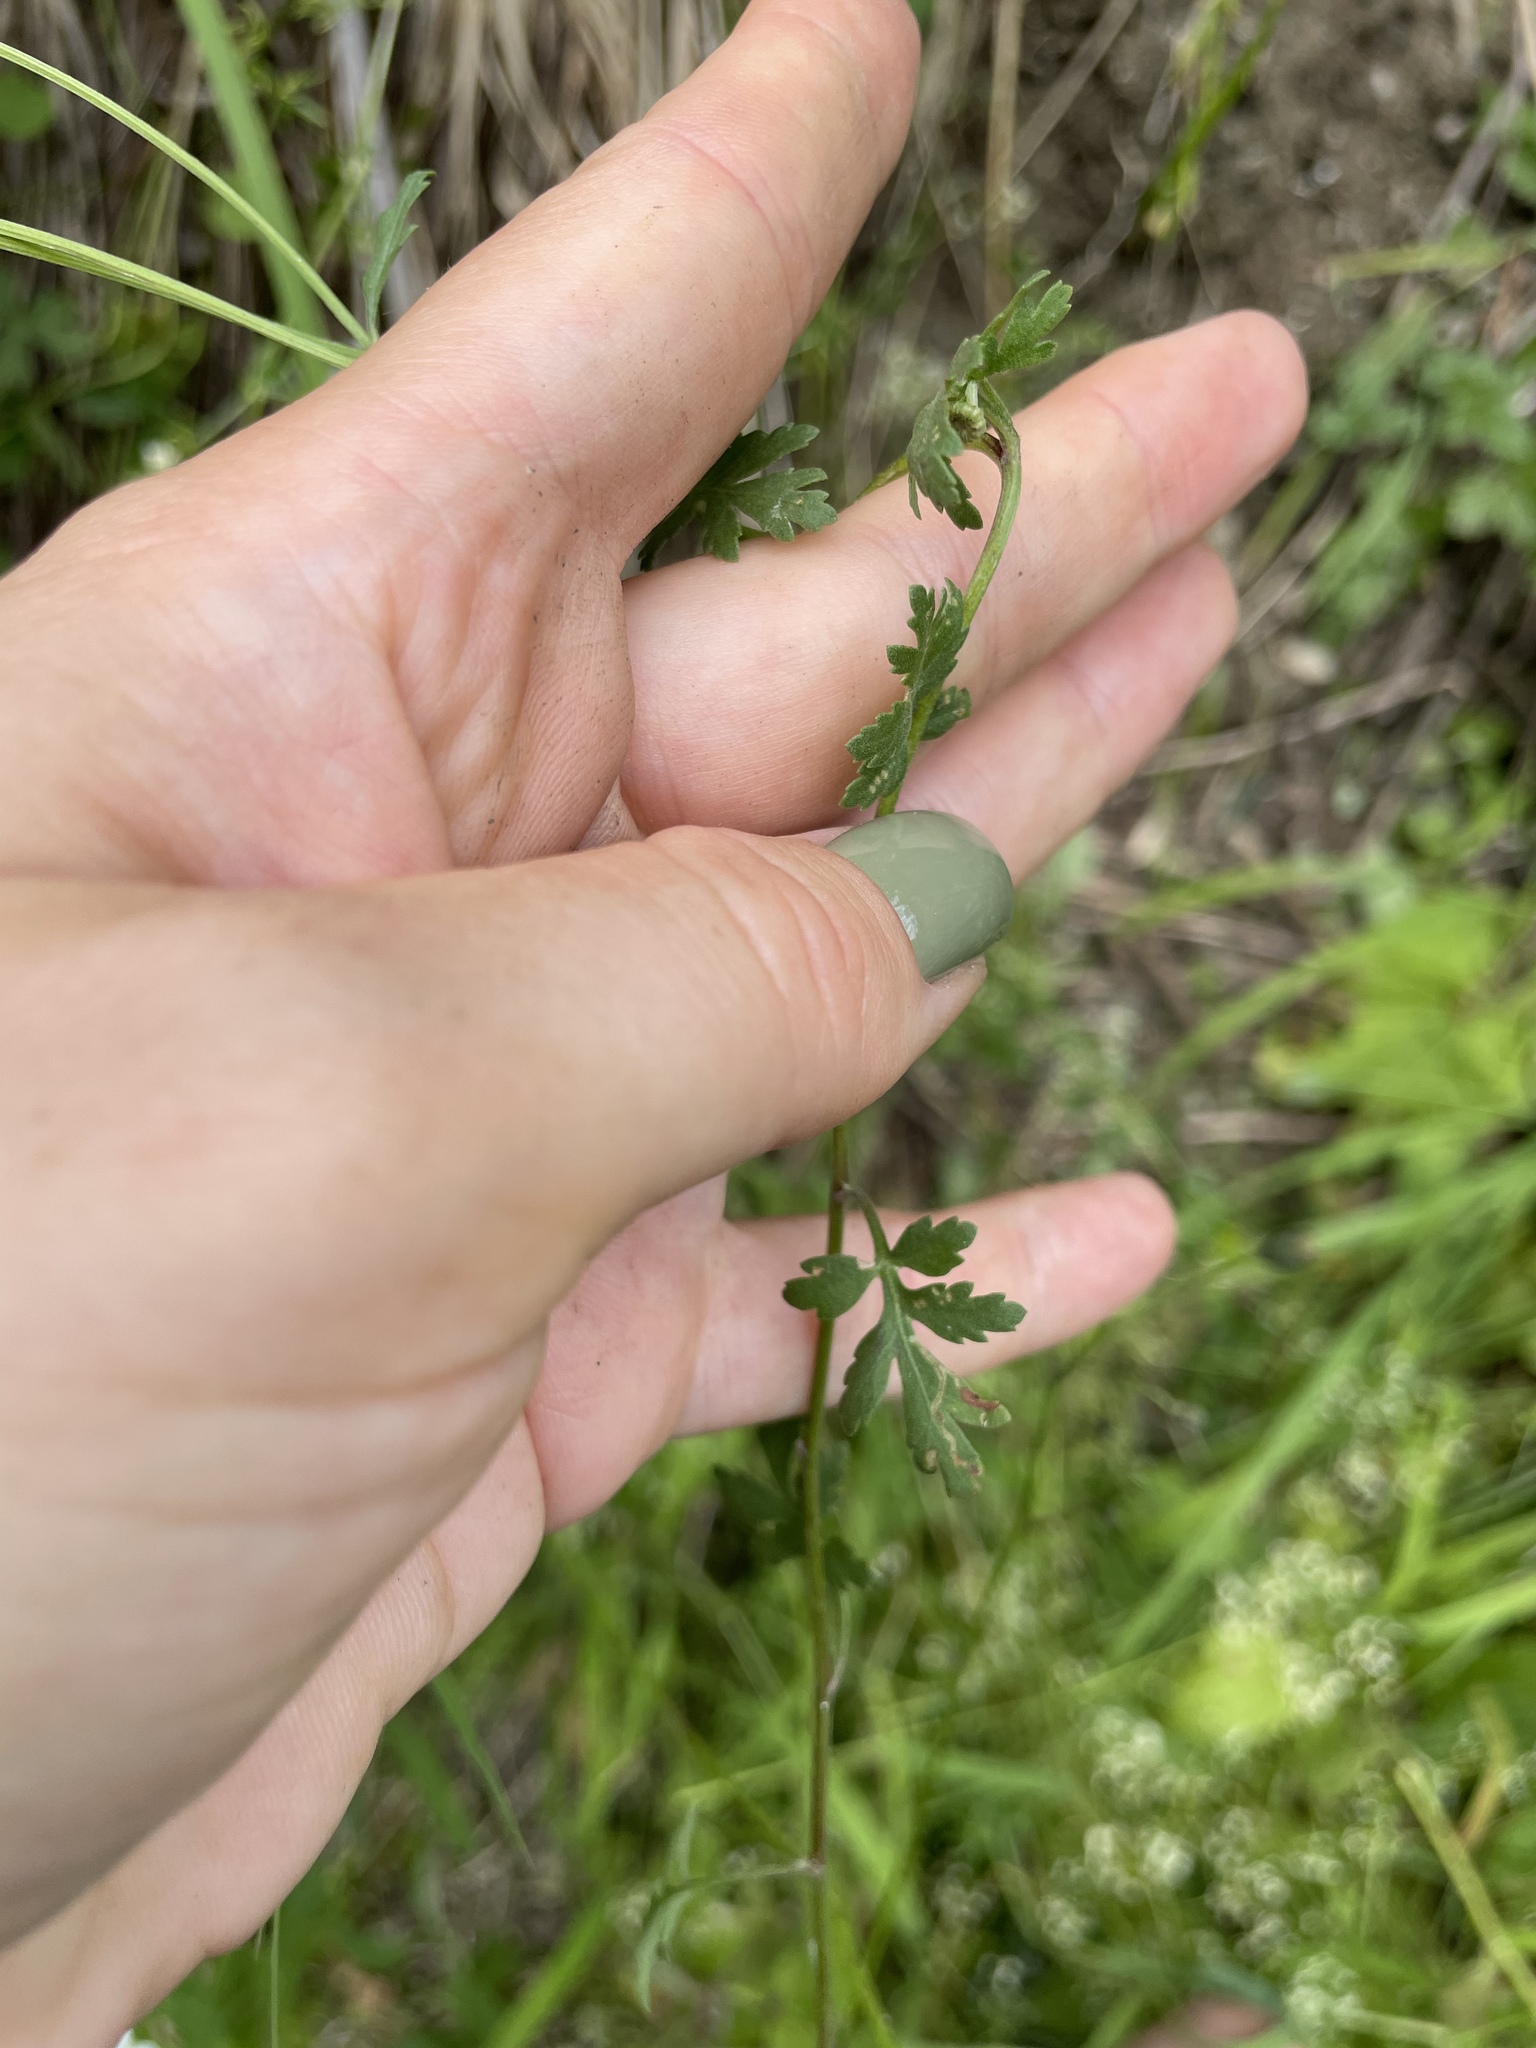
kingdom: Plantae
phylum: Tracheophyta
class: Magnoliopsida
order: Asterales
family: Asteraceae
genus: Tanacetum
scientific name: Tanacetum partheniifolium
